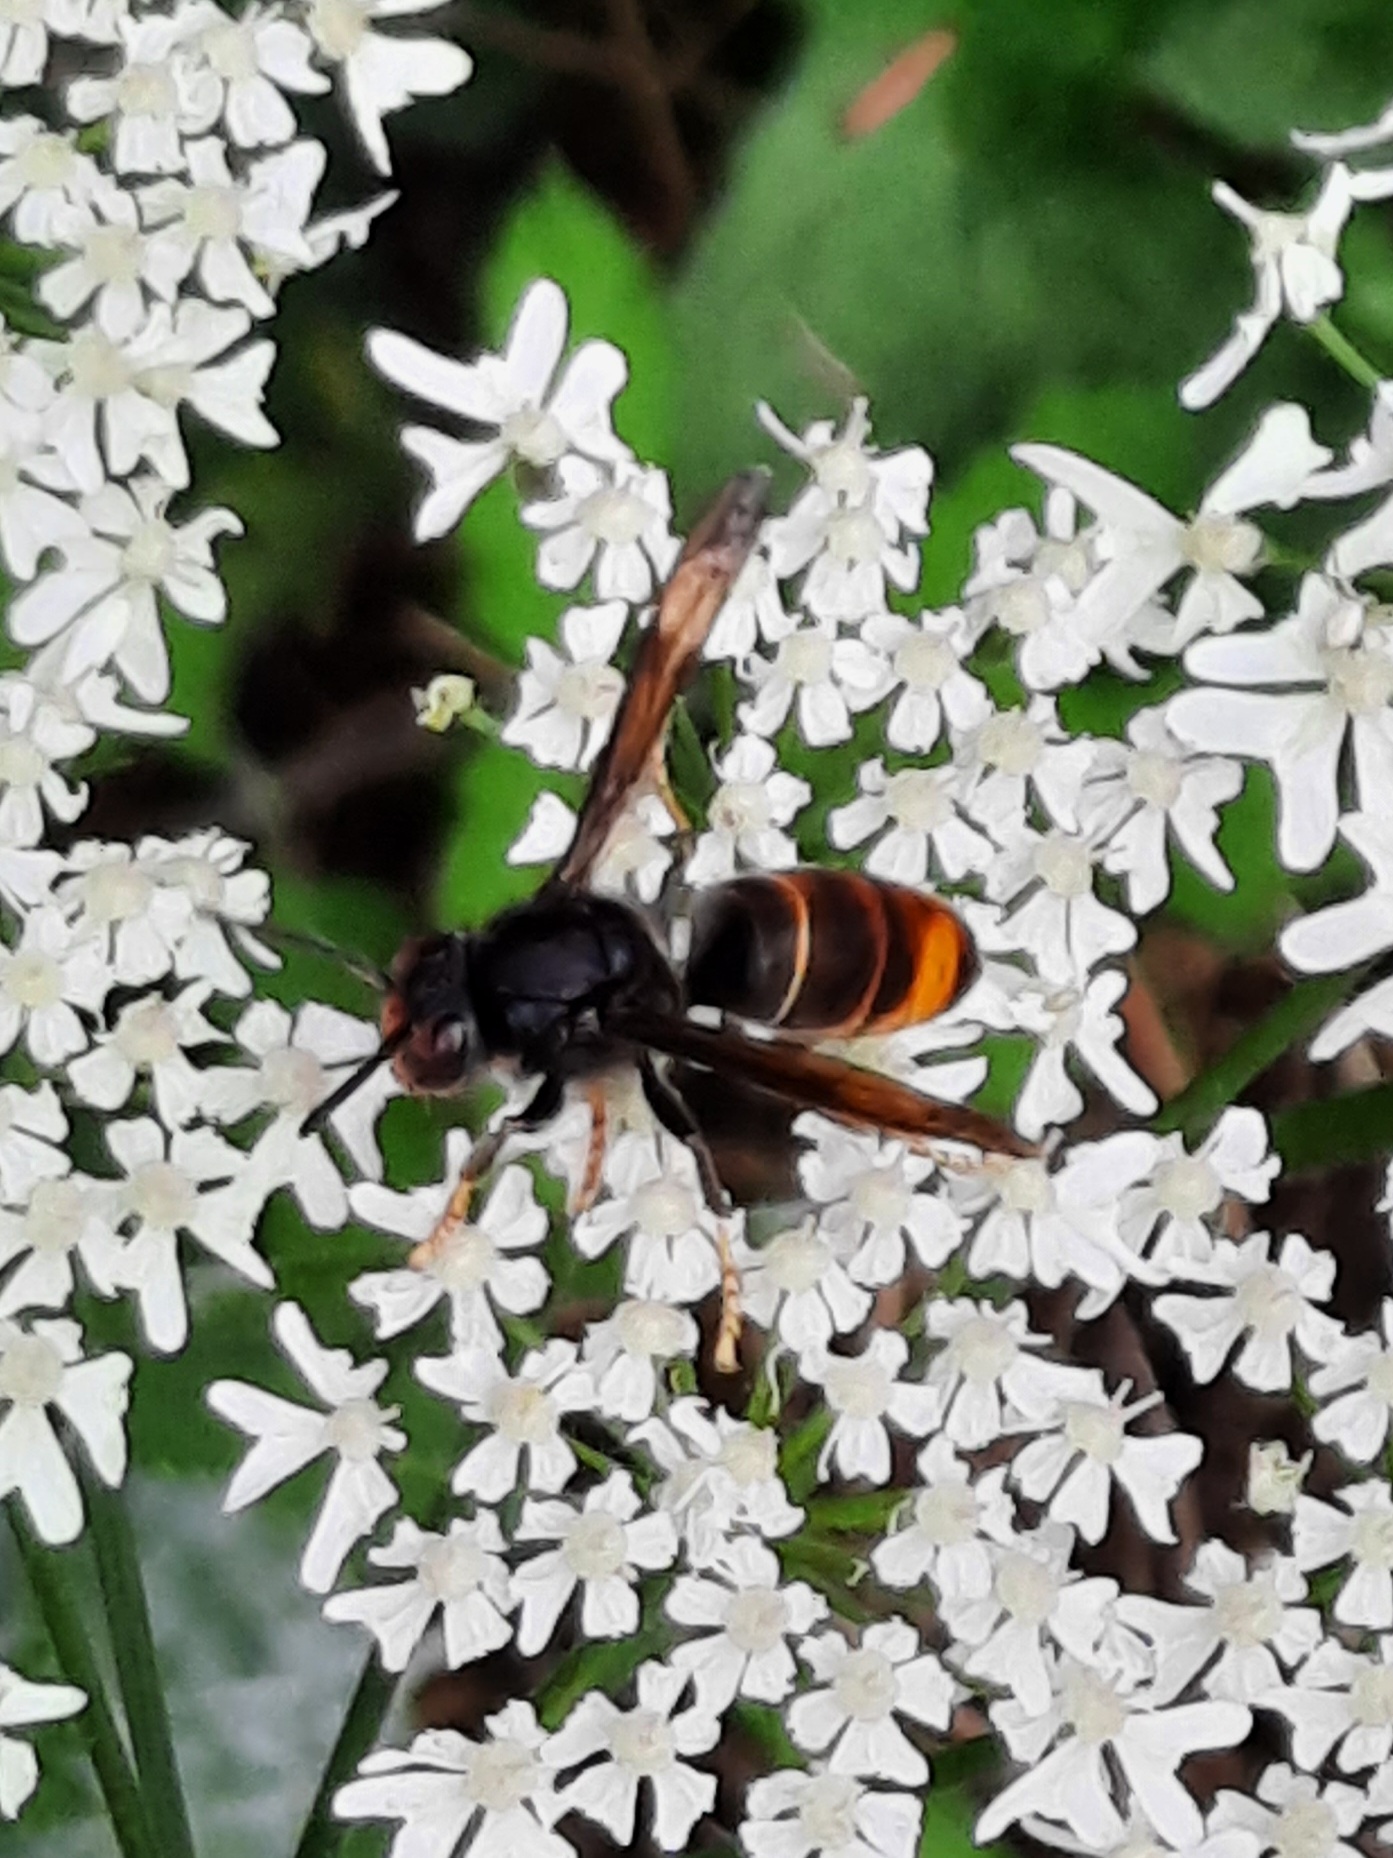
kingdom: Animalia
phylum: Arthropoda
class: Insecta
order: Hymenoptera
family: Vespidae
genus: Vespa
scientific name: Vespa velutina
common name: Asian hornet
